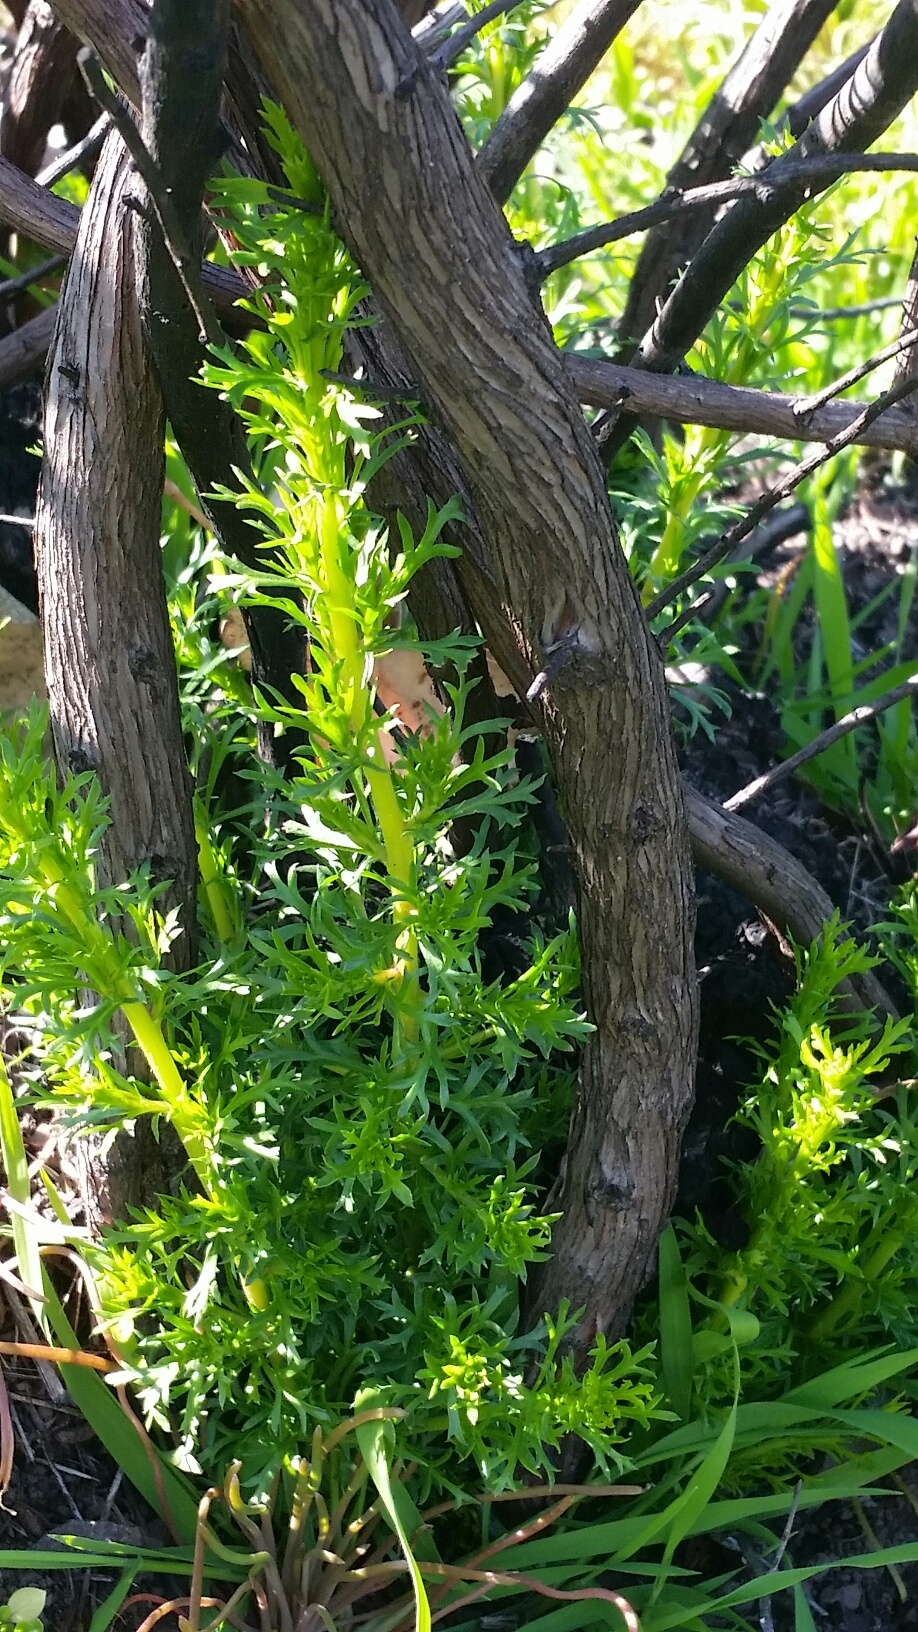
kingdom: Plantae
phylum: Tracheophyta
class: Magnoliopsida
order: Rosales
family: Rosaceae
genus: Adenostoma
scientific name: Adenostoma fasciculatum
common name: Chamise
